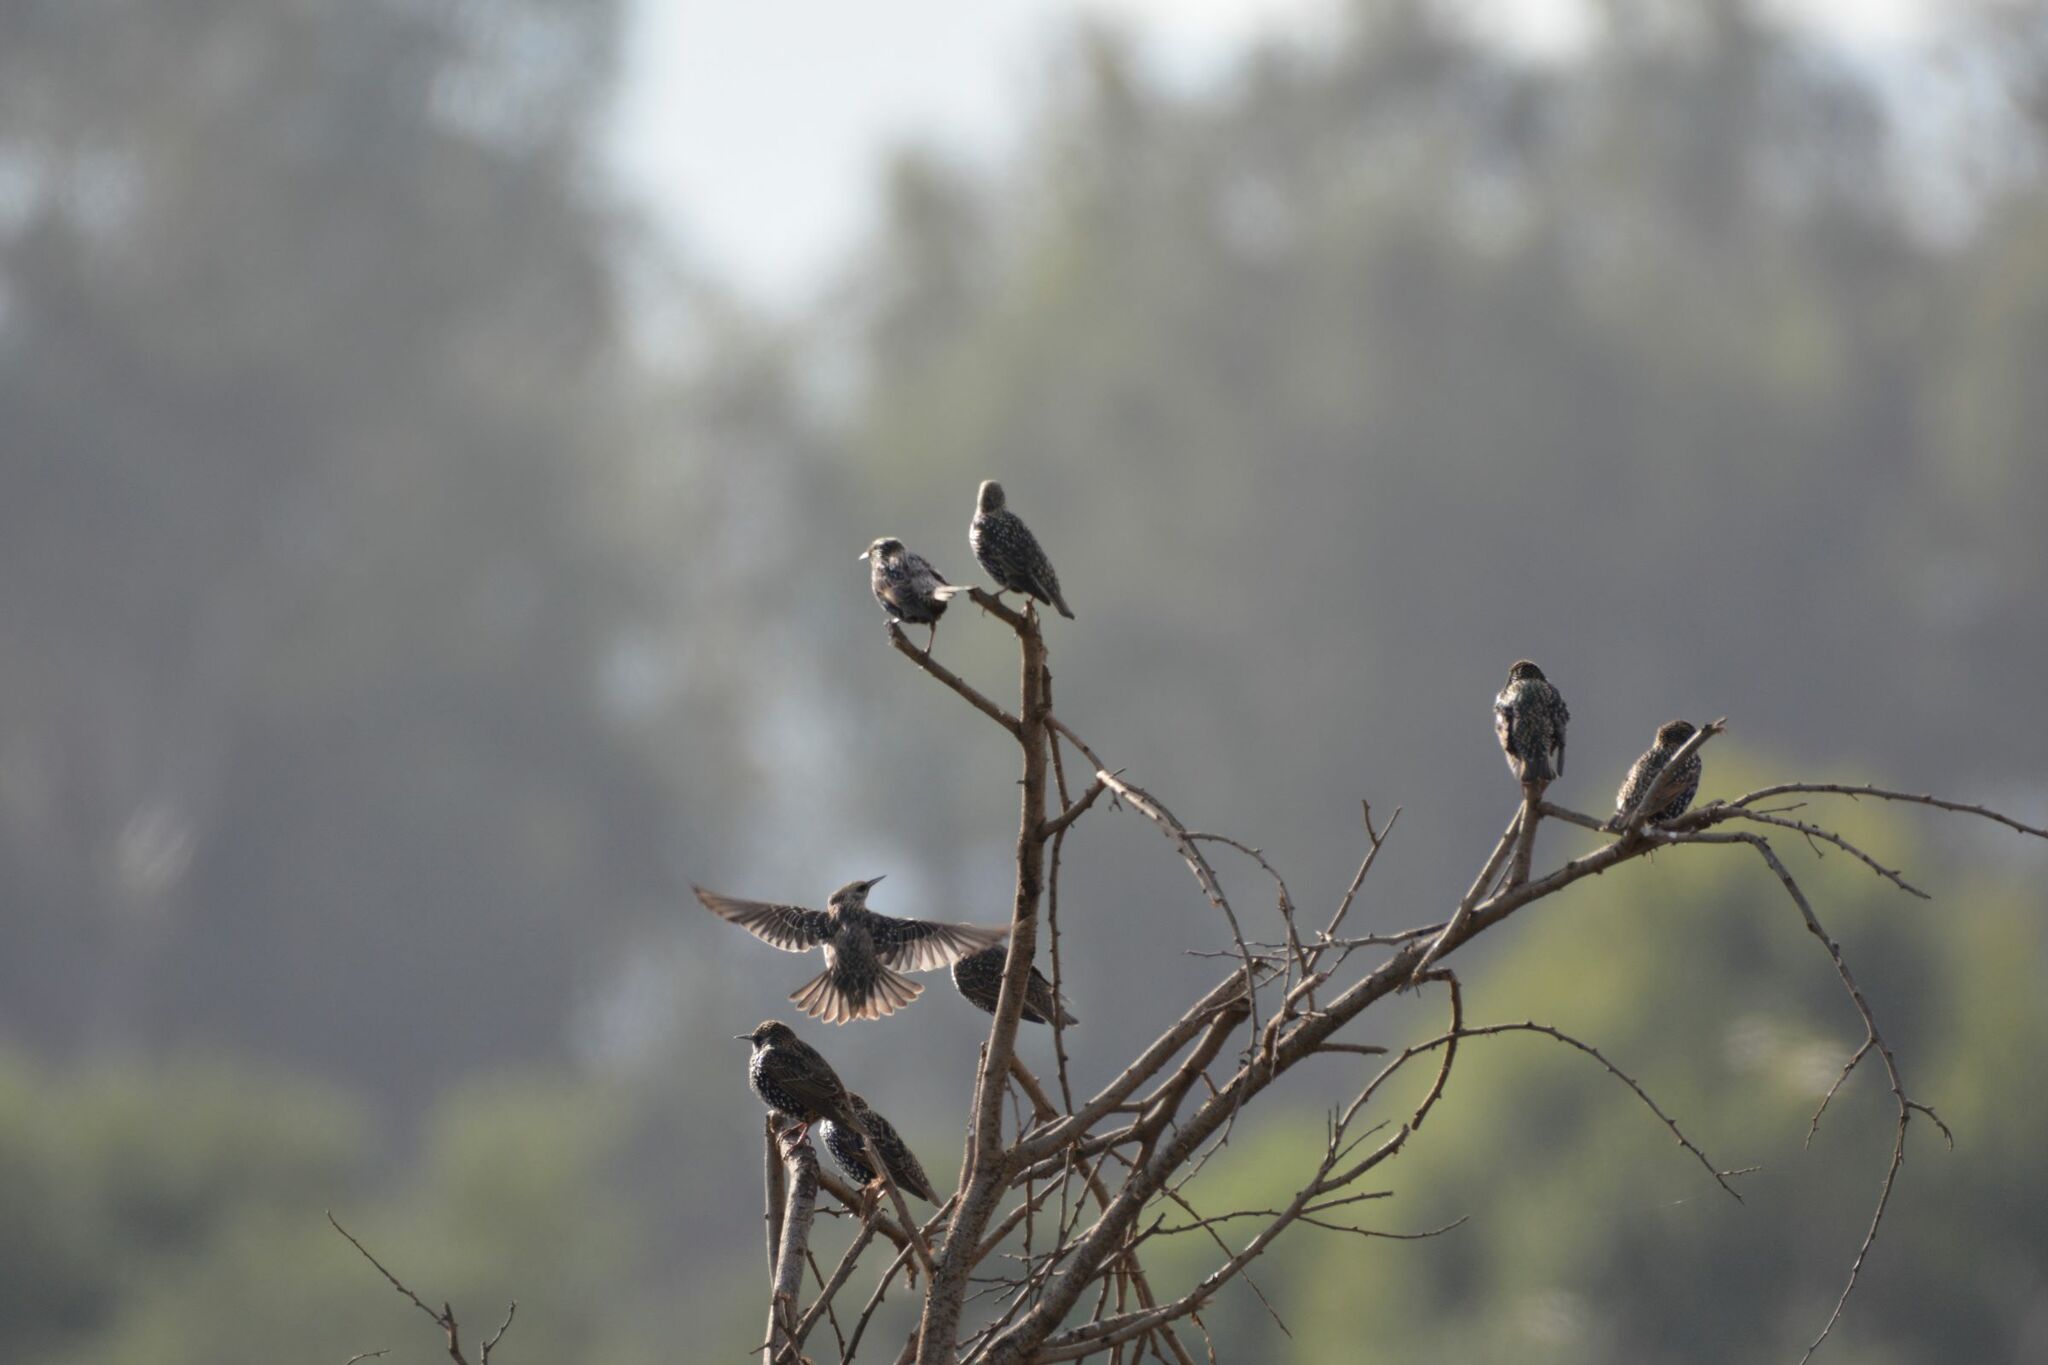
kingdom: Animalia
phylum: Chordata
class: Aves
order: Passeriformes
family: Sturnidae
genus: Sturnus
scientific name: Sturnus vulgaris
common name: Common starling
